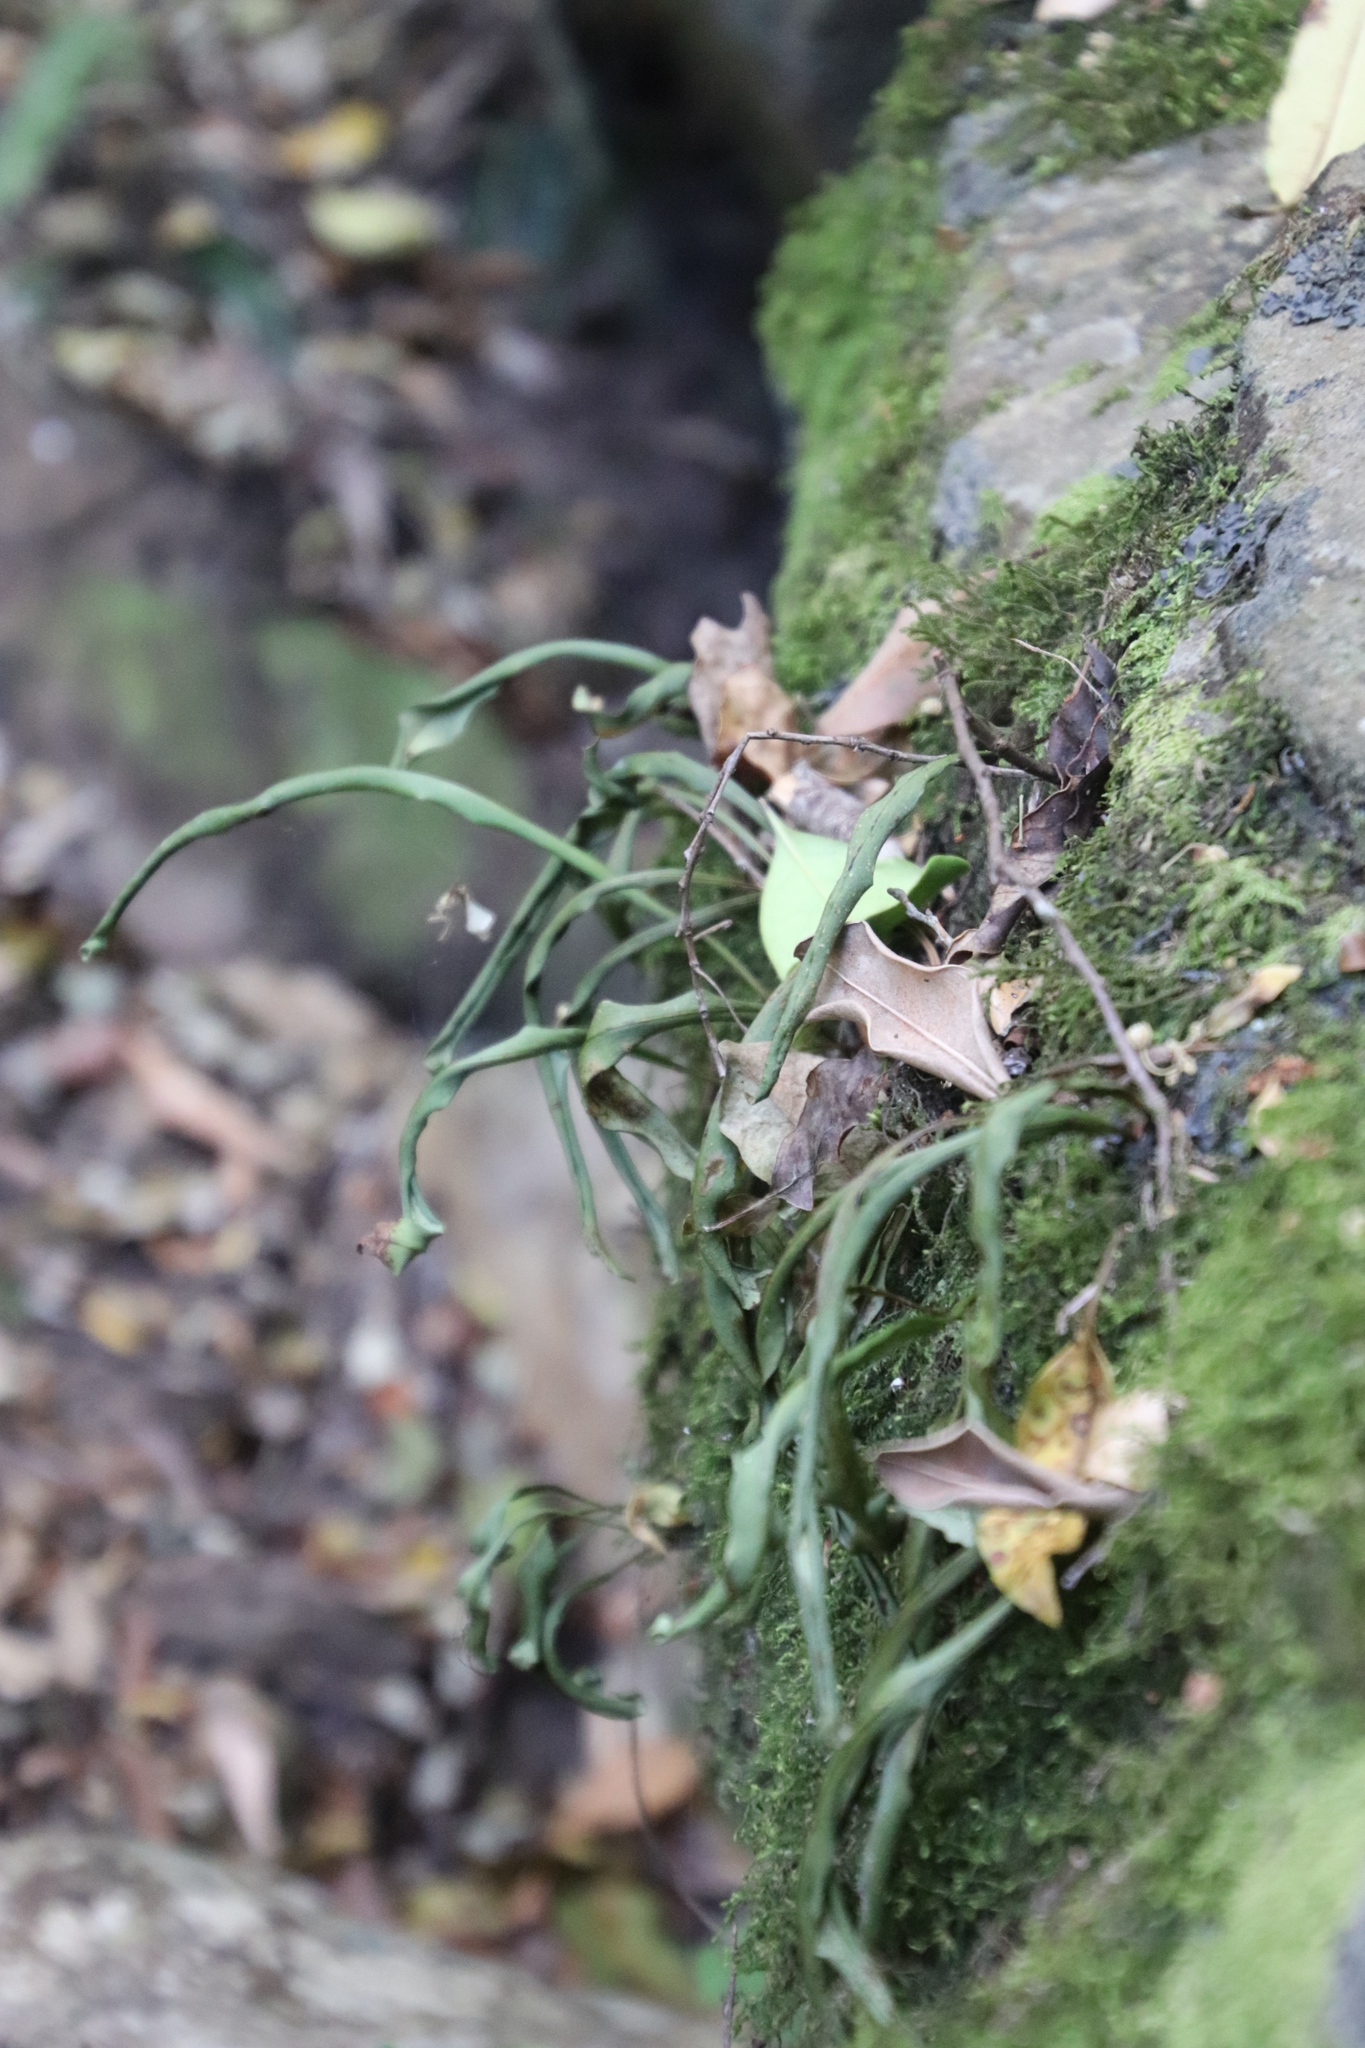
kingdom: Plantae
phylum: Tracheophyta
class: Polypodiopsida
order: Polypodiales
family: Polypodiaceae
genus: Pleopeltis
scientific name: Pleopeltis macrocarpa
